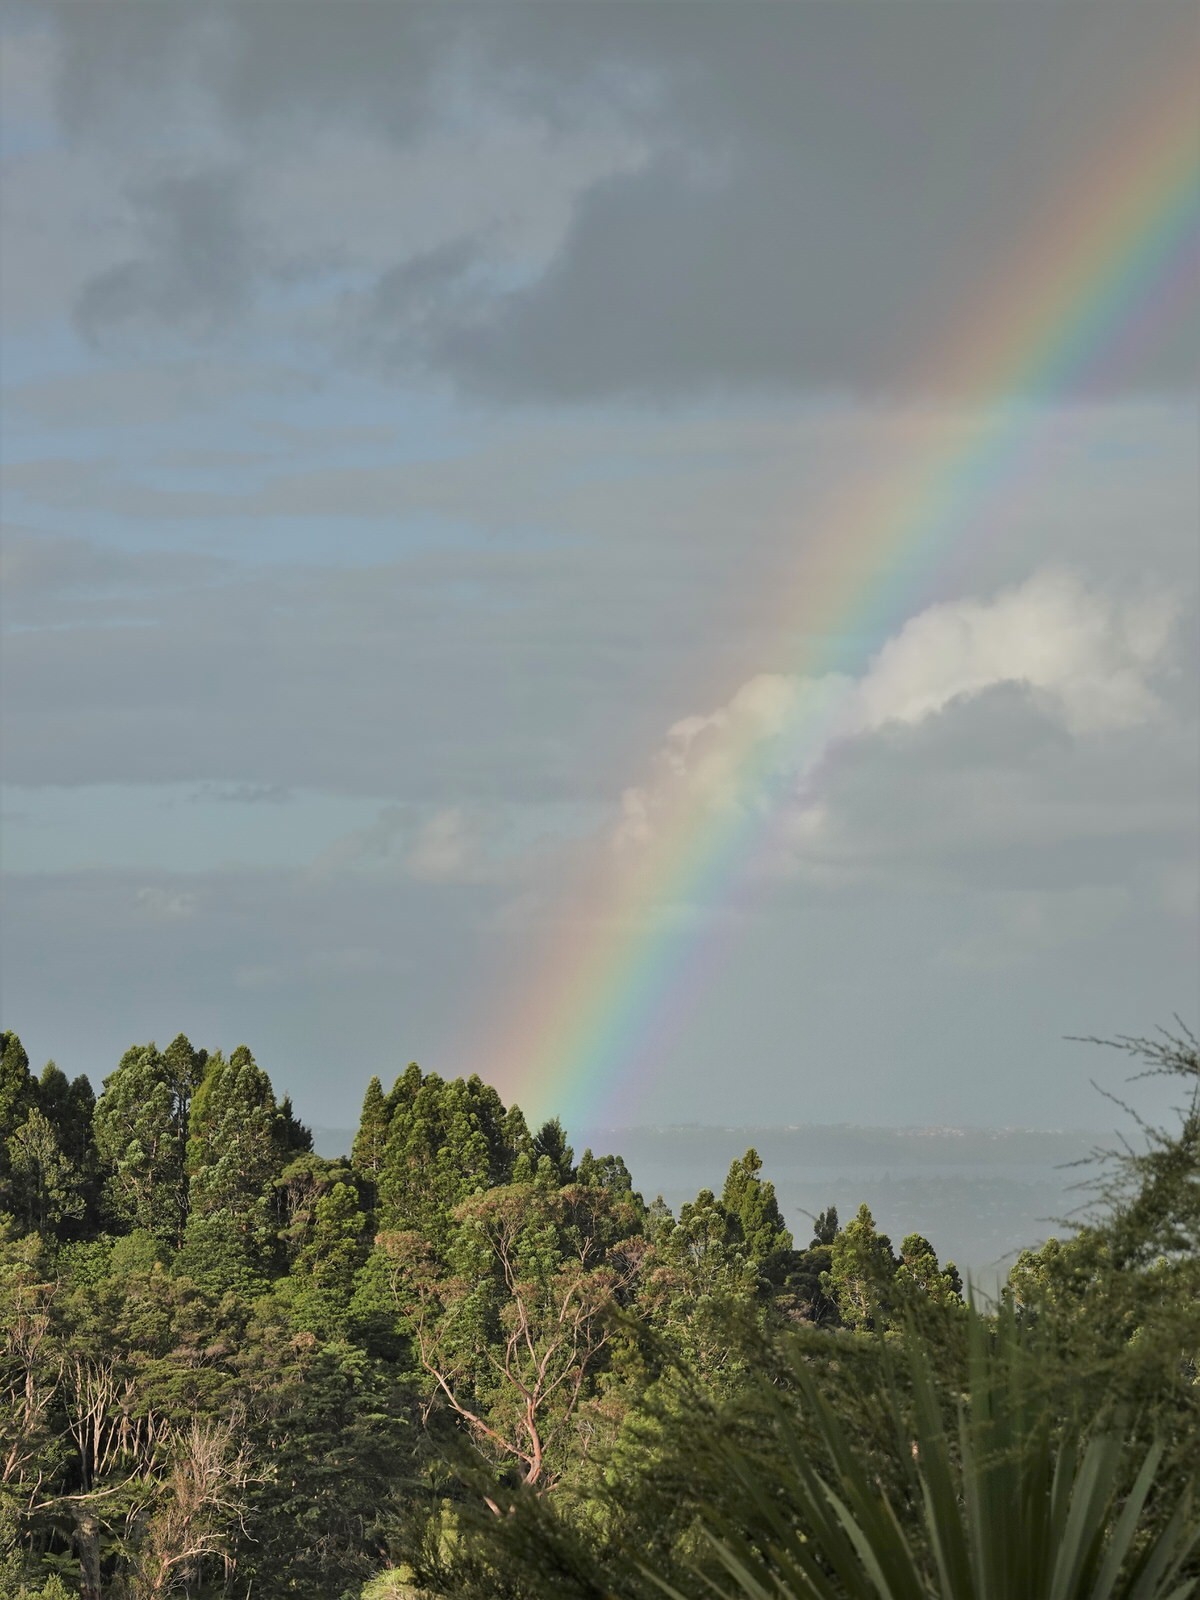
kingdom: Plantae
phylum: Tracheophyta
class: Pinopsida
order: Pinales
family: Araucariaceae
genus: Agathis
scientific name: Agathis australis
